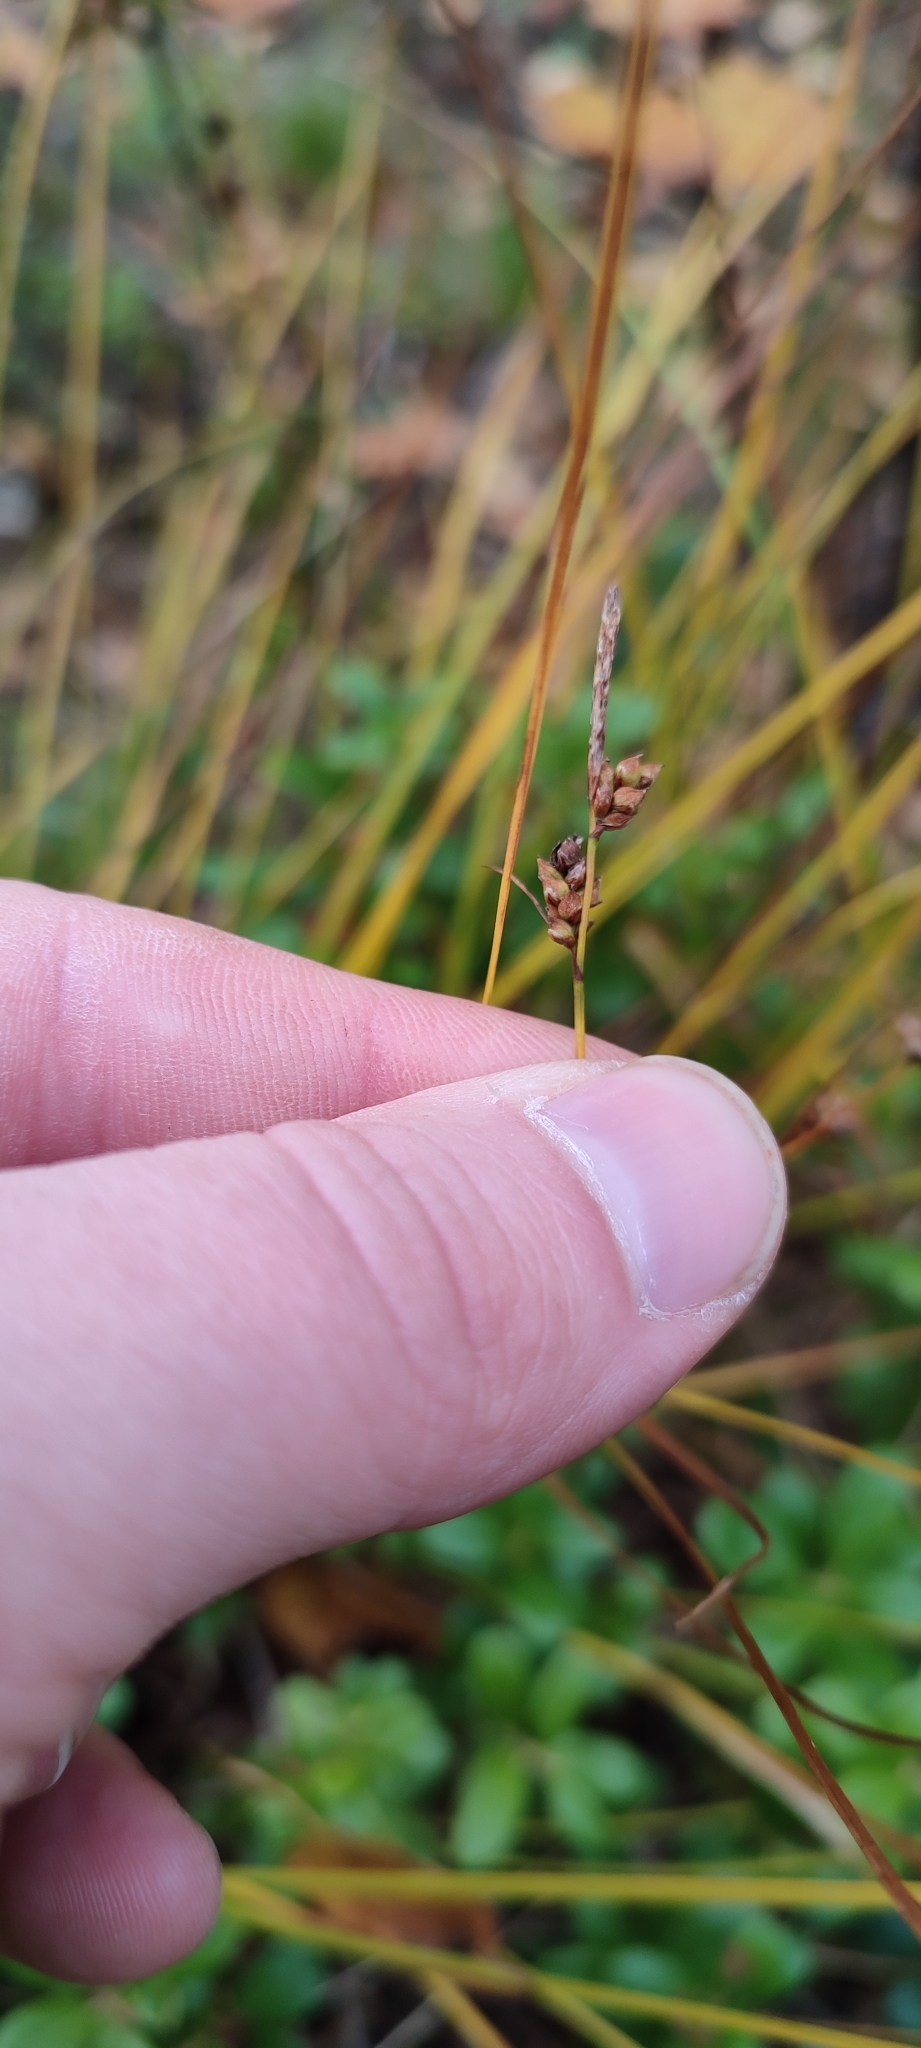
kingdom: Plantae
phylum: Tracheophyta
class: Liliopsida
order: Poales
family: Cyperaceae
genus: Carex
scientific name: Carex globularis
